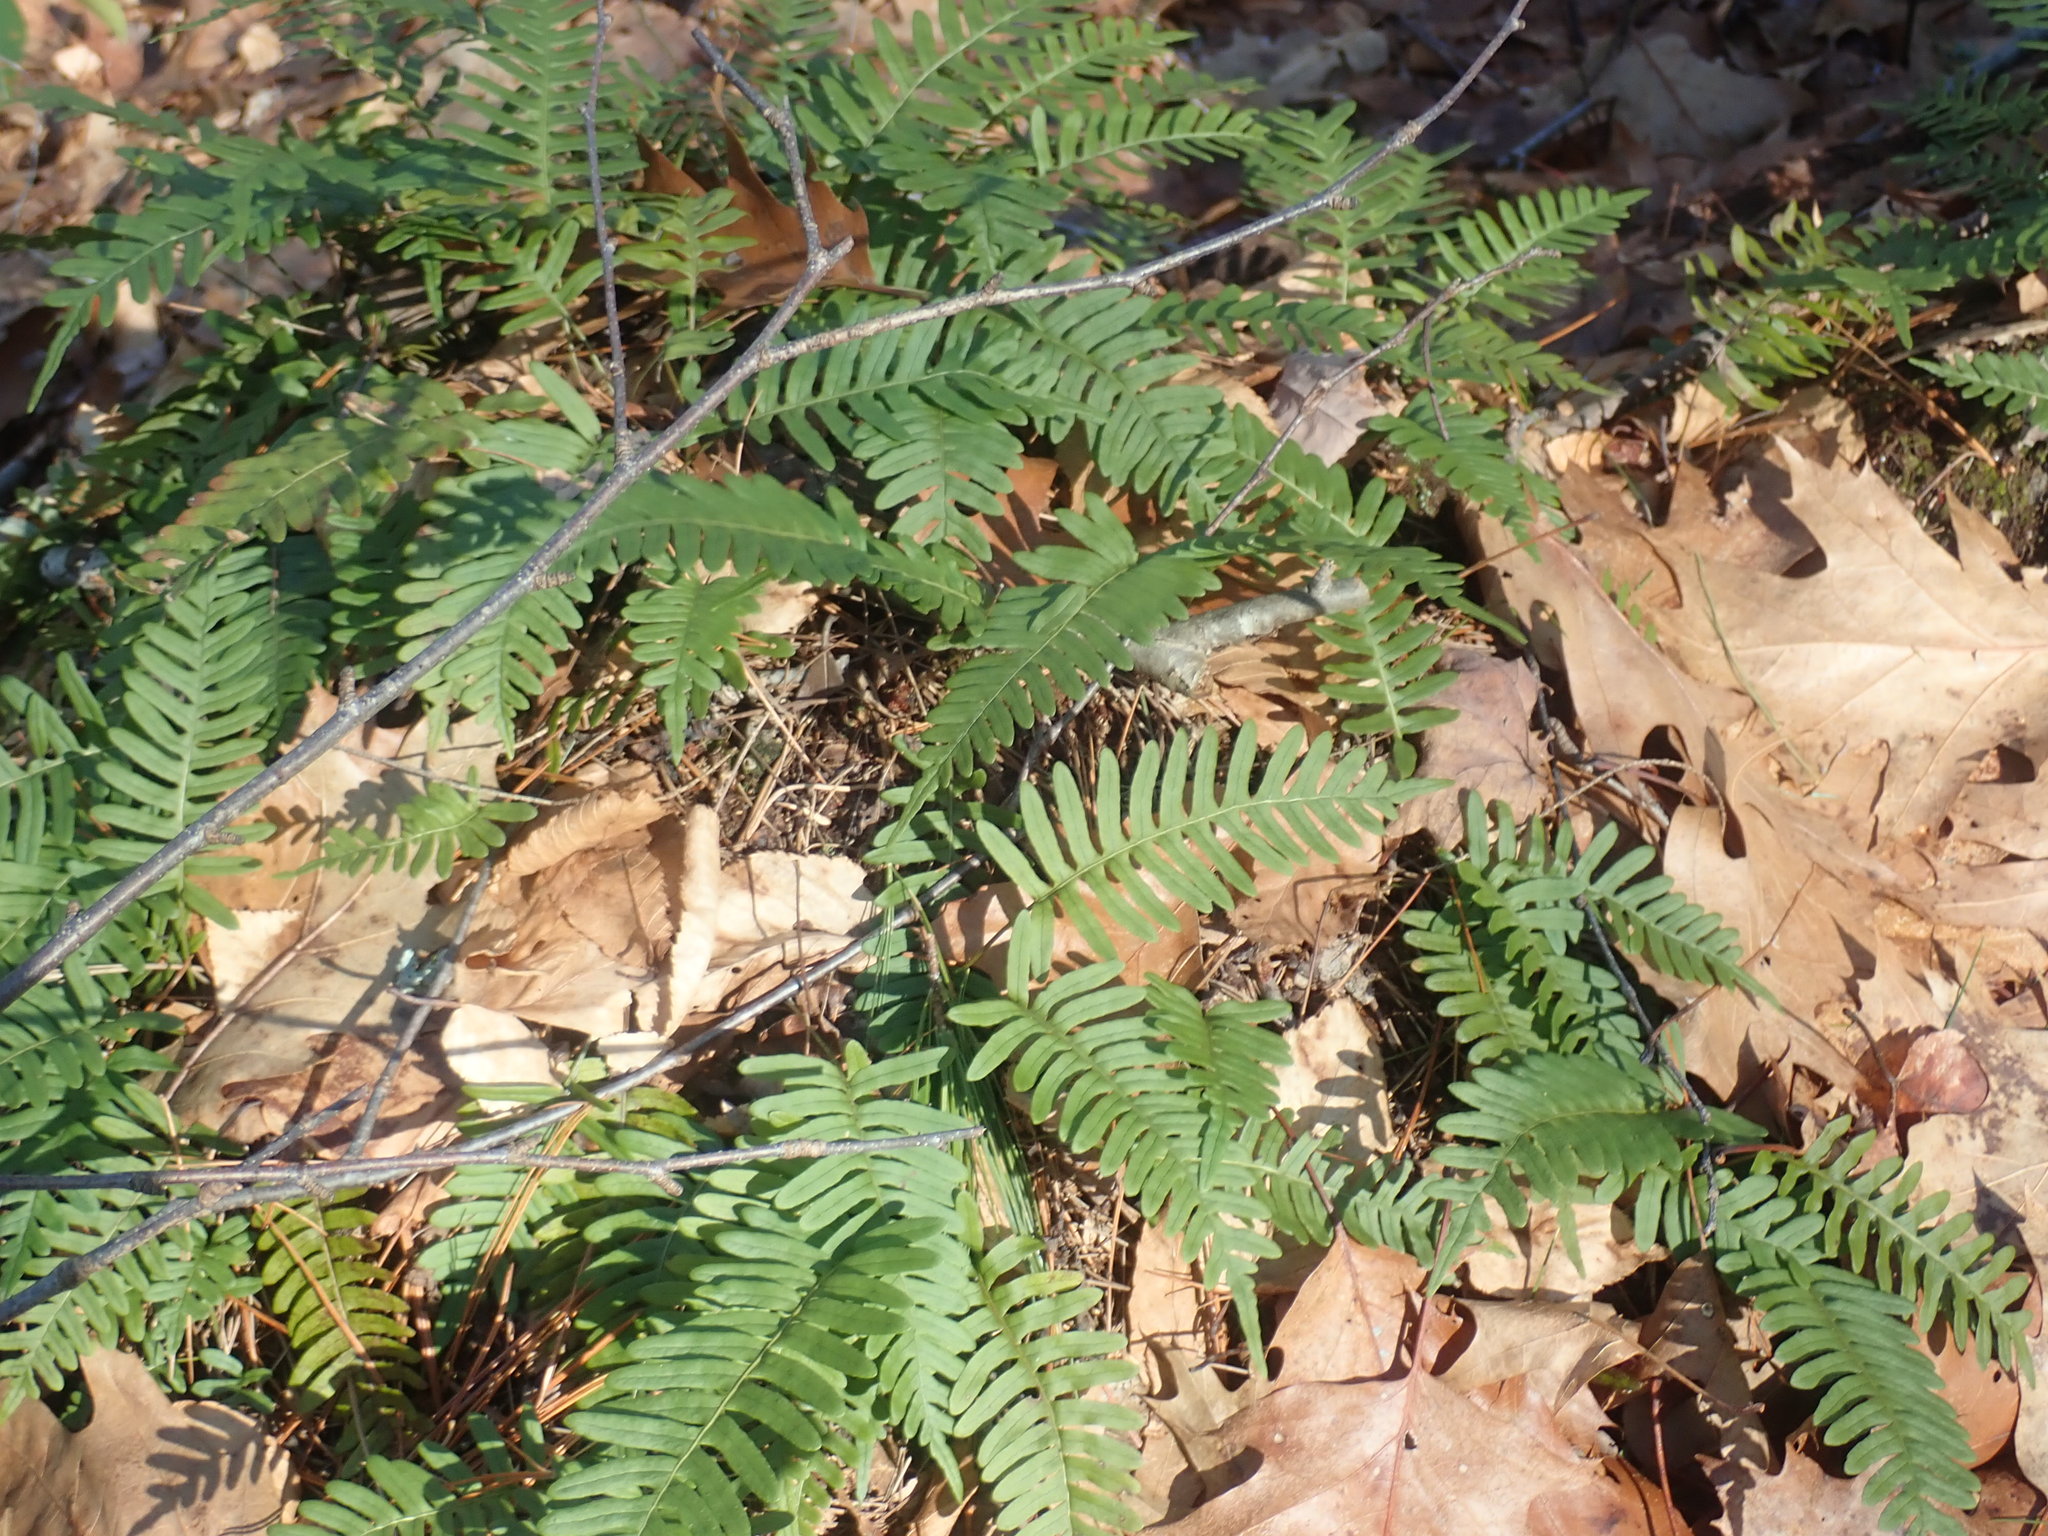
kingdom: Plantae
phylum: Tracheophyta
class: Polypodiopsida
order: Polypodiales
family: Polypodiaceae
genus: Polypodium
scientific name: Polypodium virginianum
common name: American wall fern
